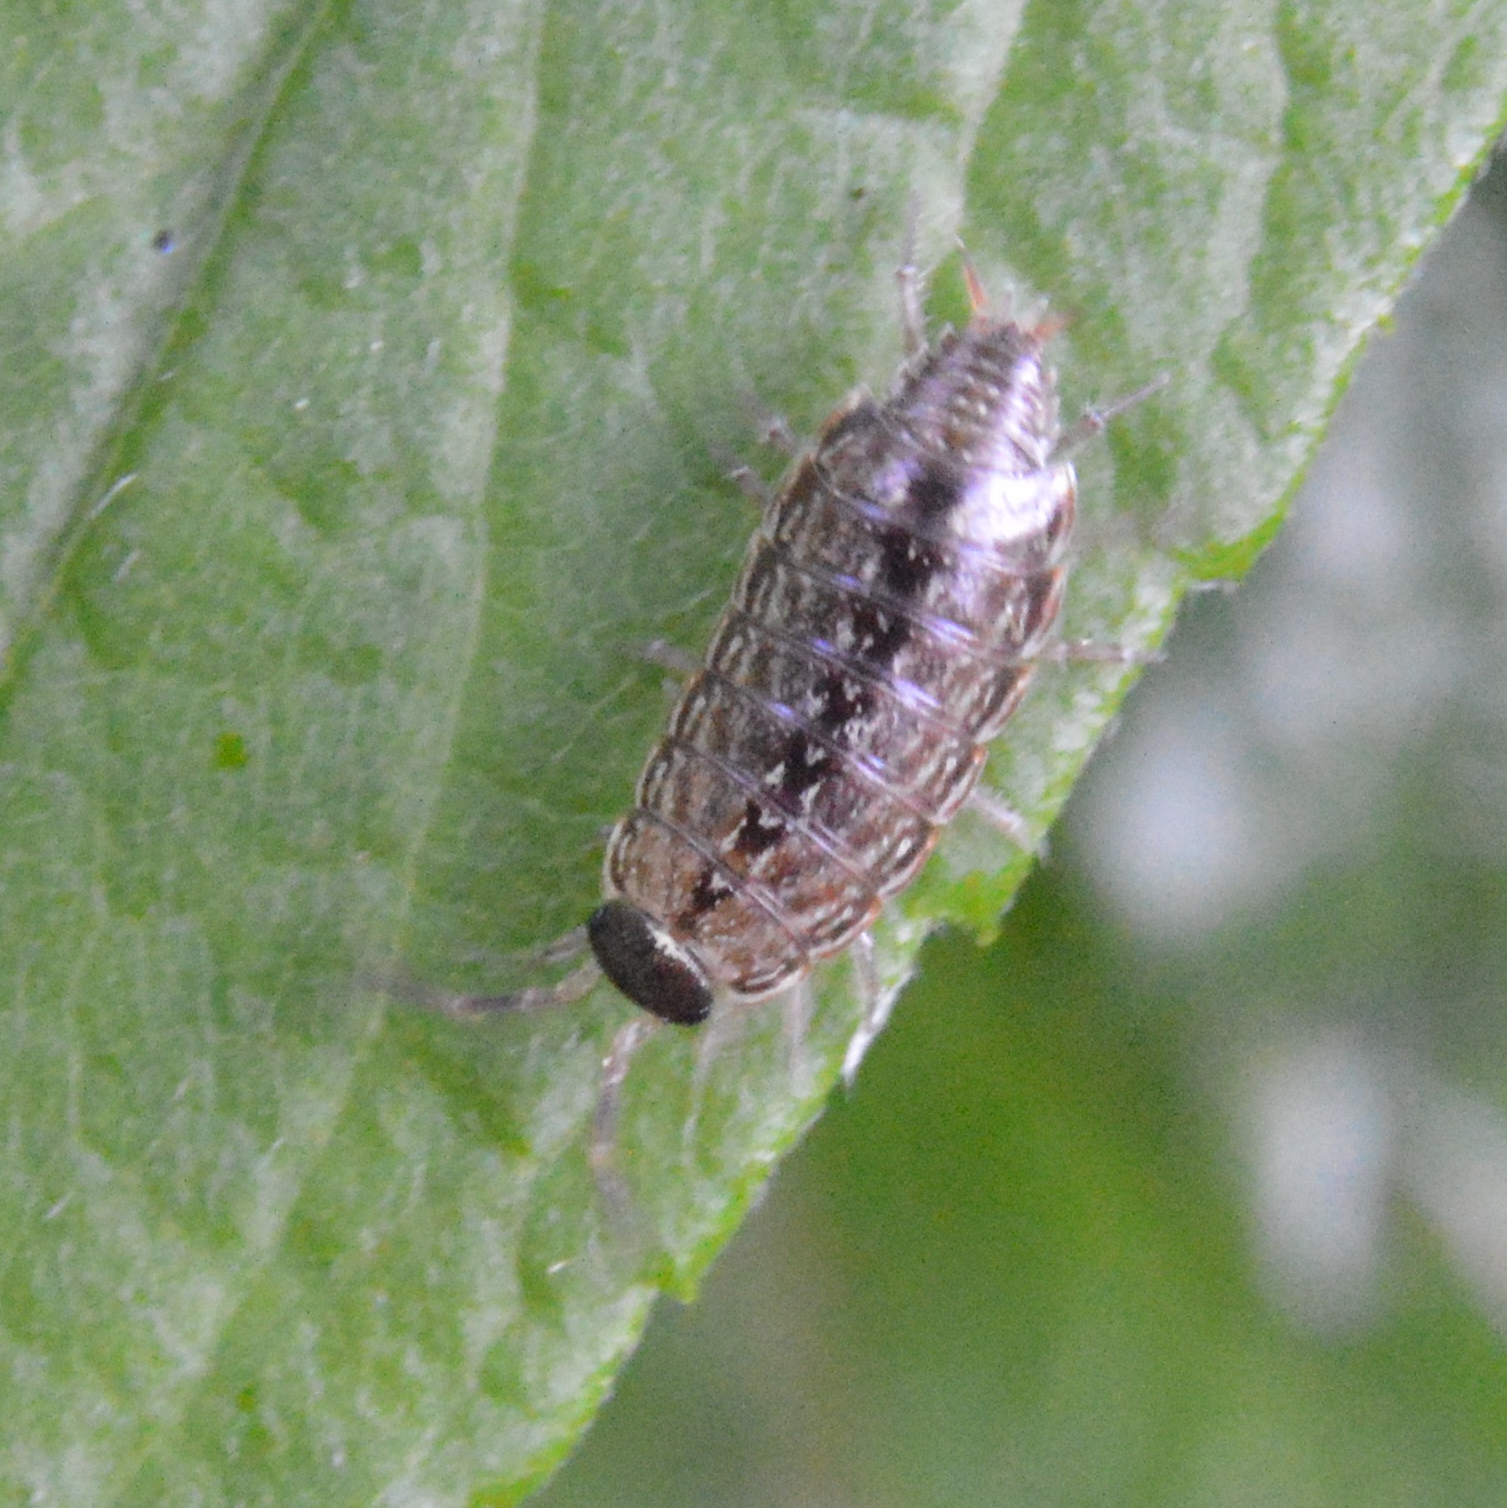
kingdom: Animalia
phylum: Arthropoda
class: Malacostraca
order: Isopoda
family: Philosciidae
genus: Philoscia
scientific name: Philoscia muscorum
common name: Common striped woodlouse
